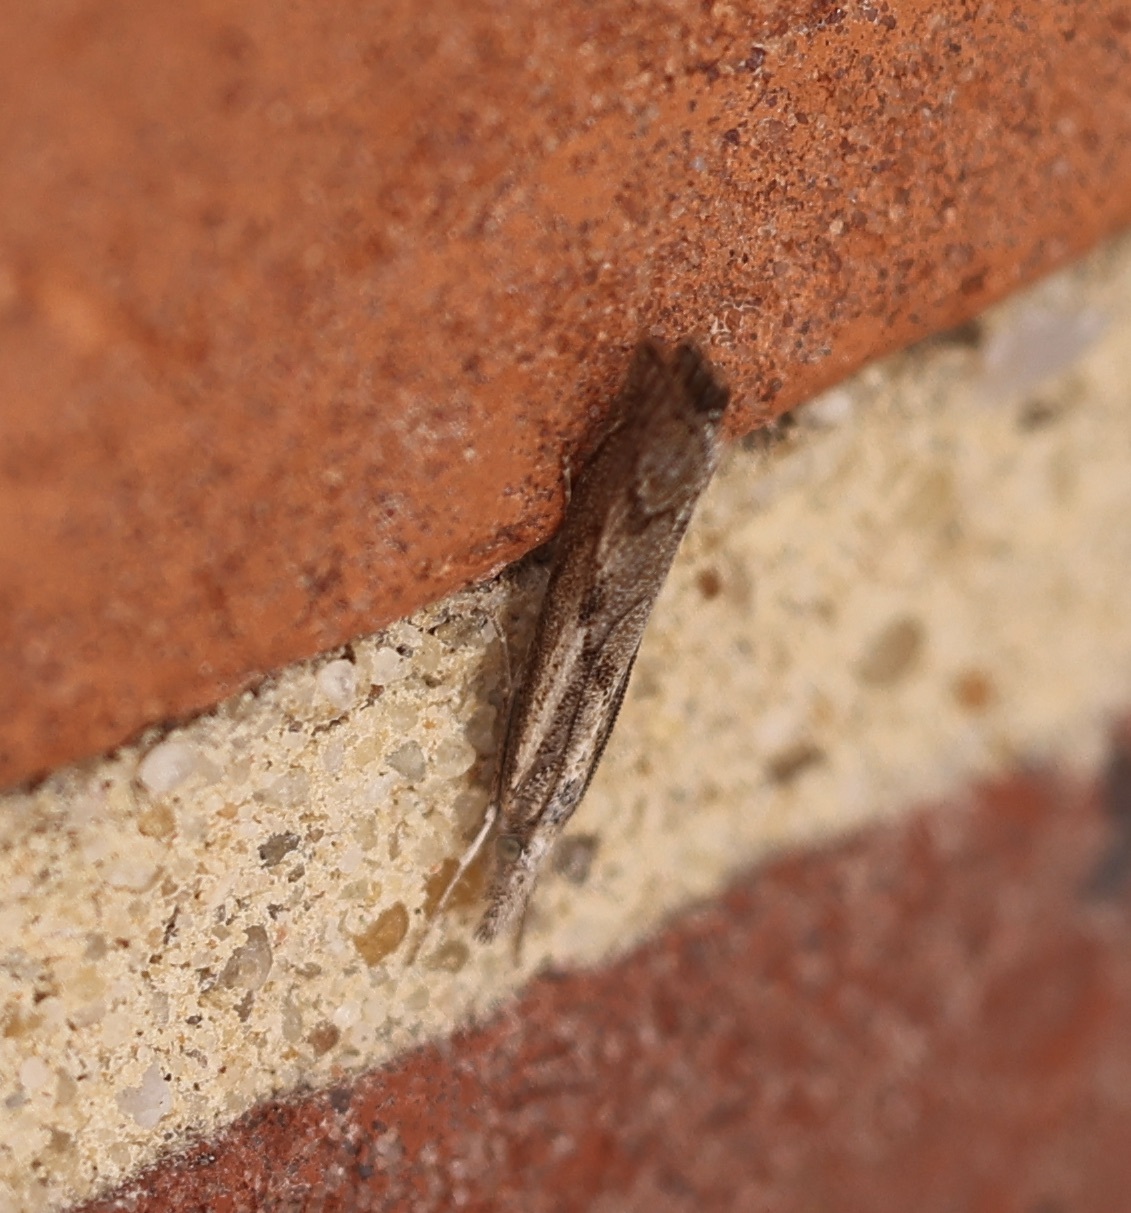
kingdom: Animalia
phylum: Arthropoda
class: Insecta
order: Lepidoptera
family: Crambidae
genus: Agriphila
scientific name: Agriphila geniculea
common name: Elbow-stripe grass-veneer
